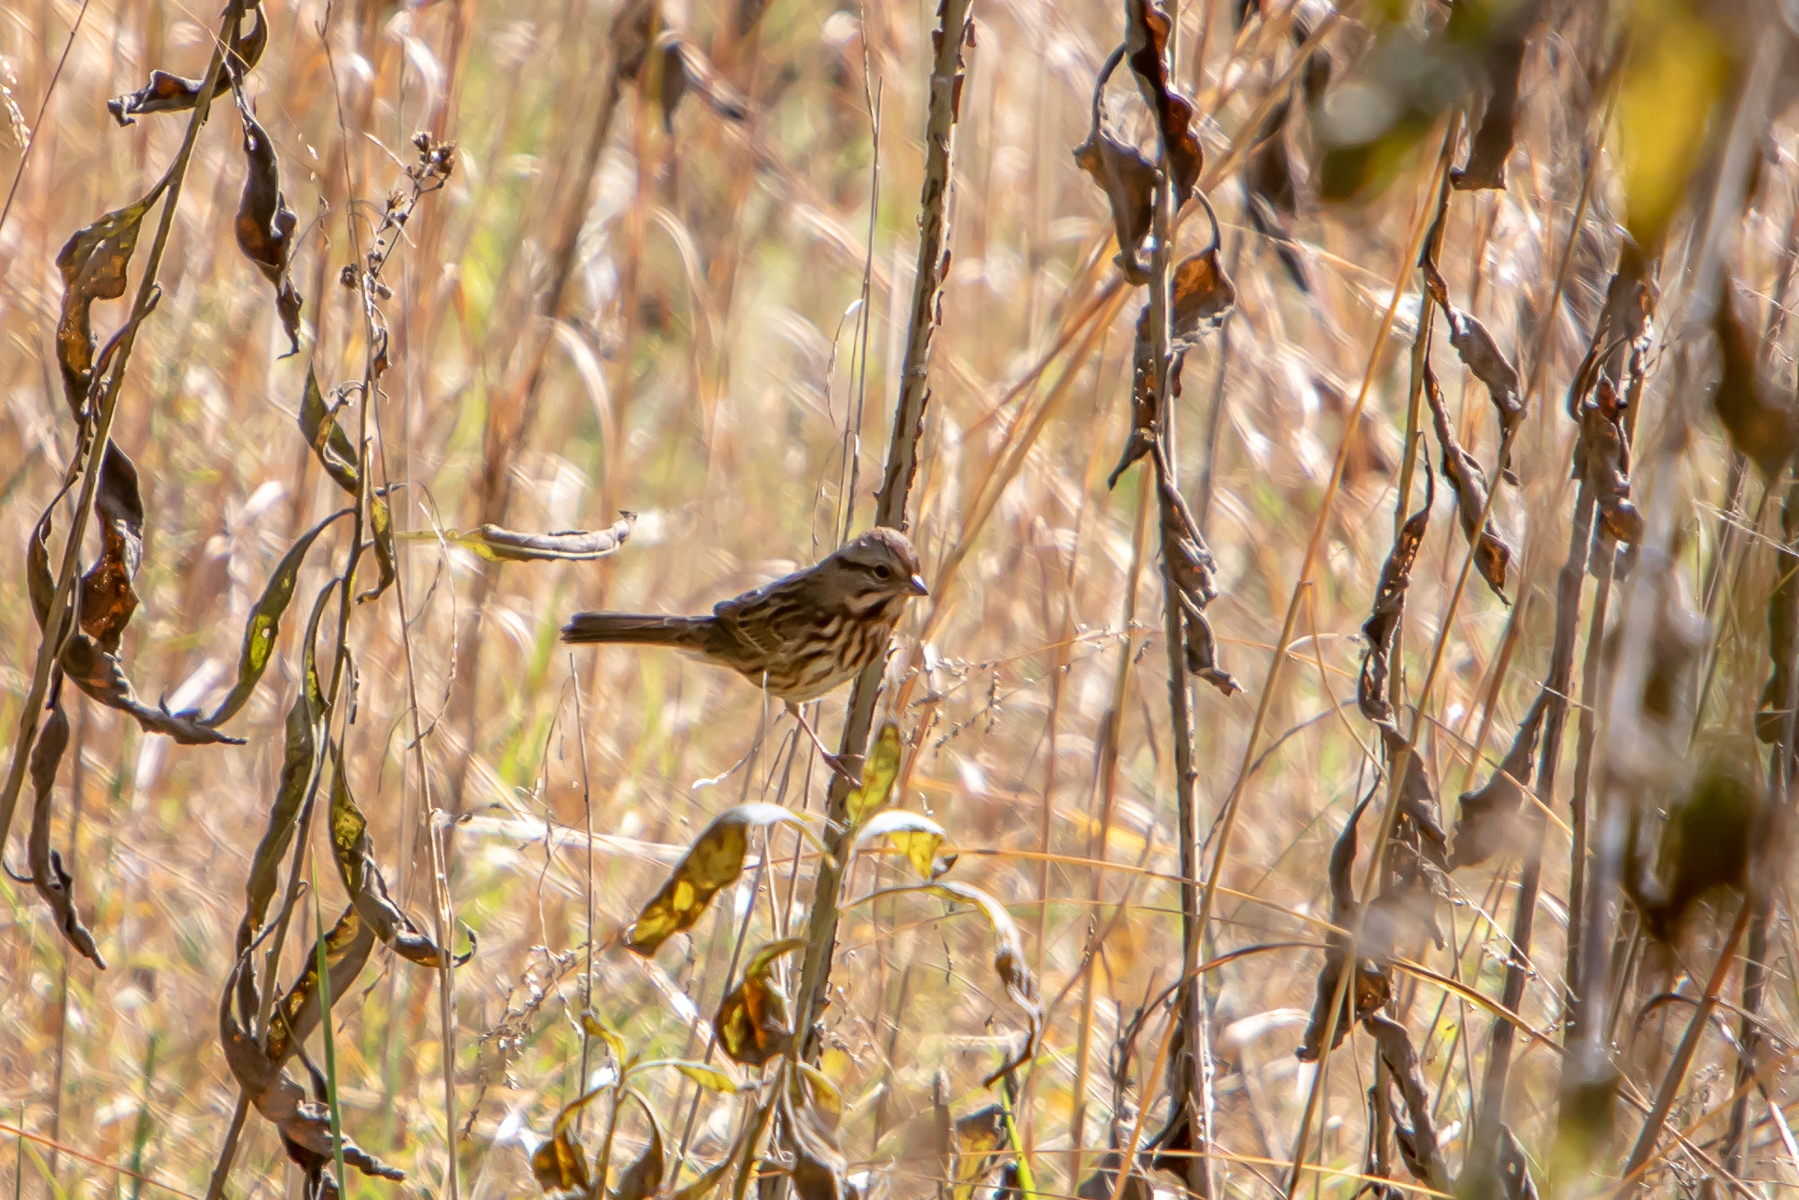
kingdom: Animalia
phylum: Chordata
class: Aves
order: Passeriformes
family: Passerellidae
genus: Melospiza
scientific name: Melospiza melodia
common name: Song sparrow
